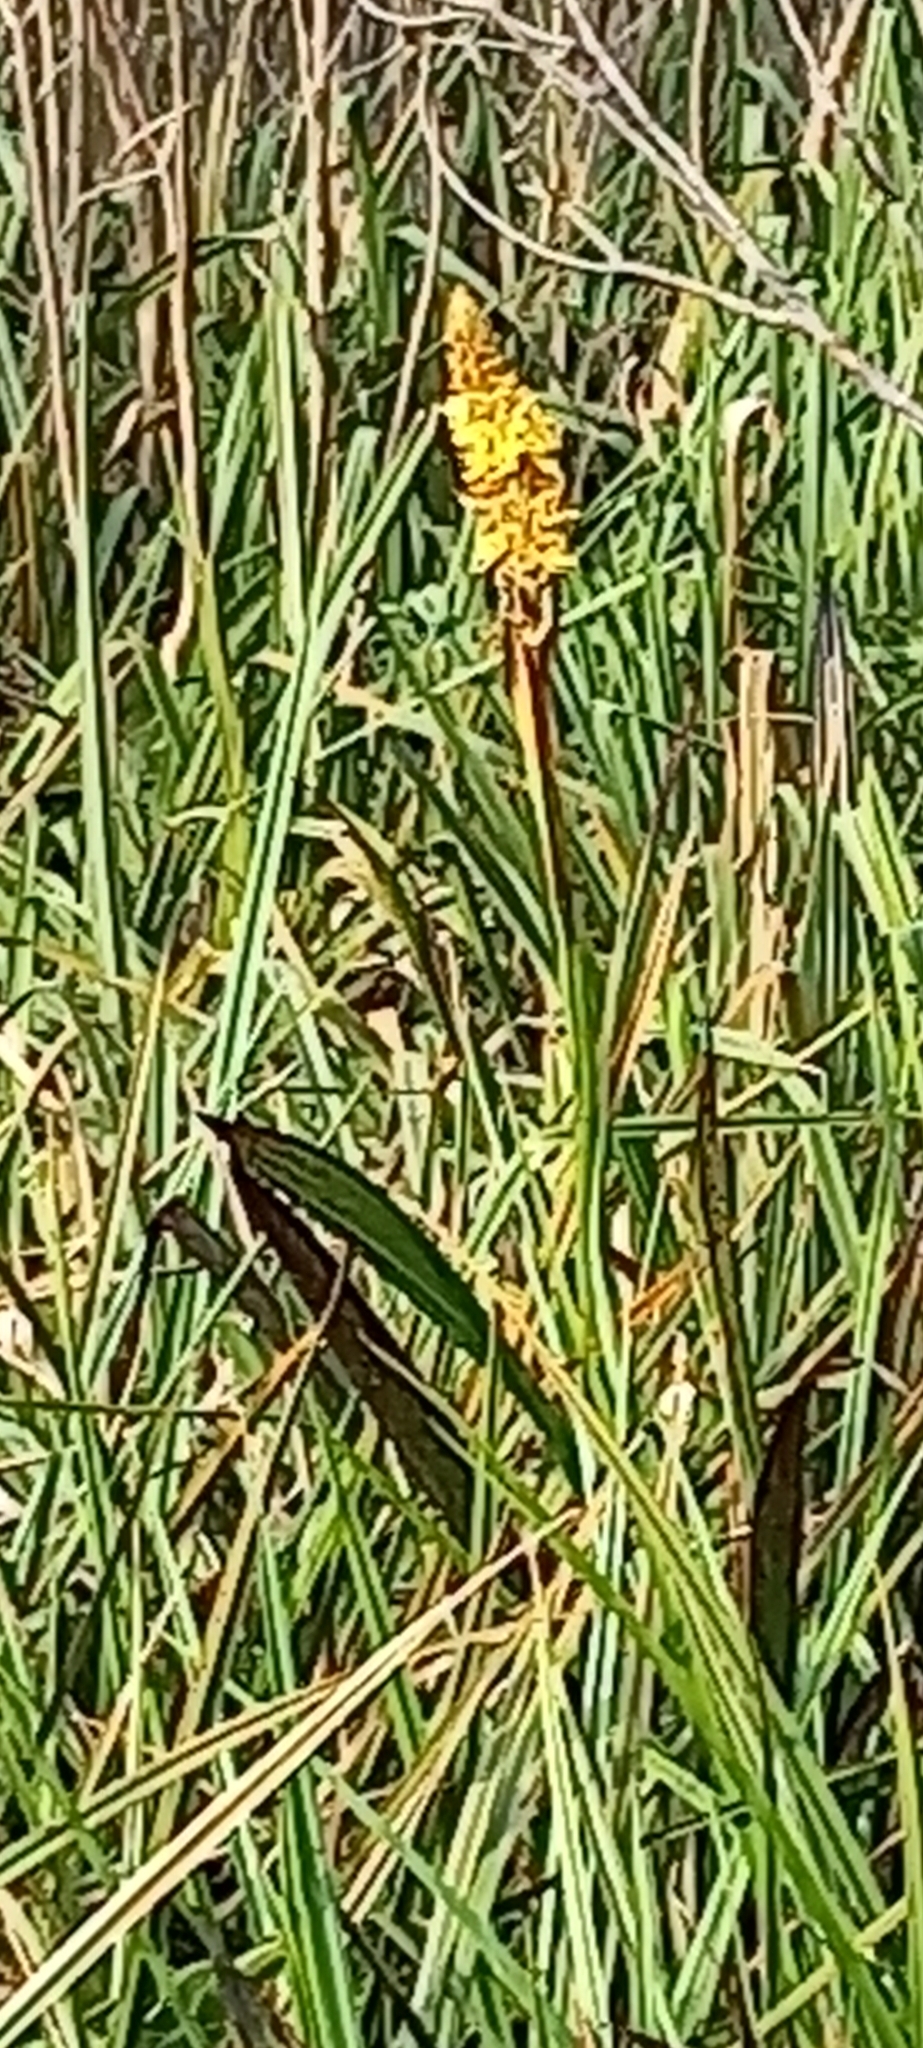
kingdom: Plantae
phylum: Tracheophyta
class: Liliopsida
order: Commelinales
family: Haemodoraceae
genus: Wachendorfia
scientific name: Wachendorfia thyrsiflora
